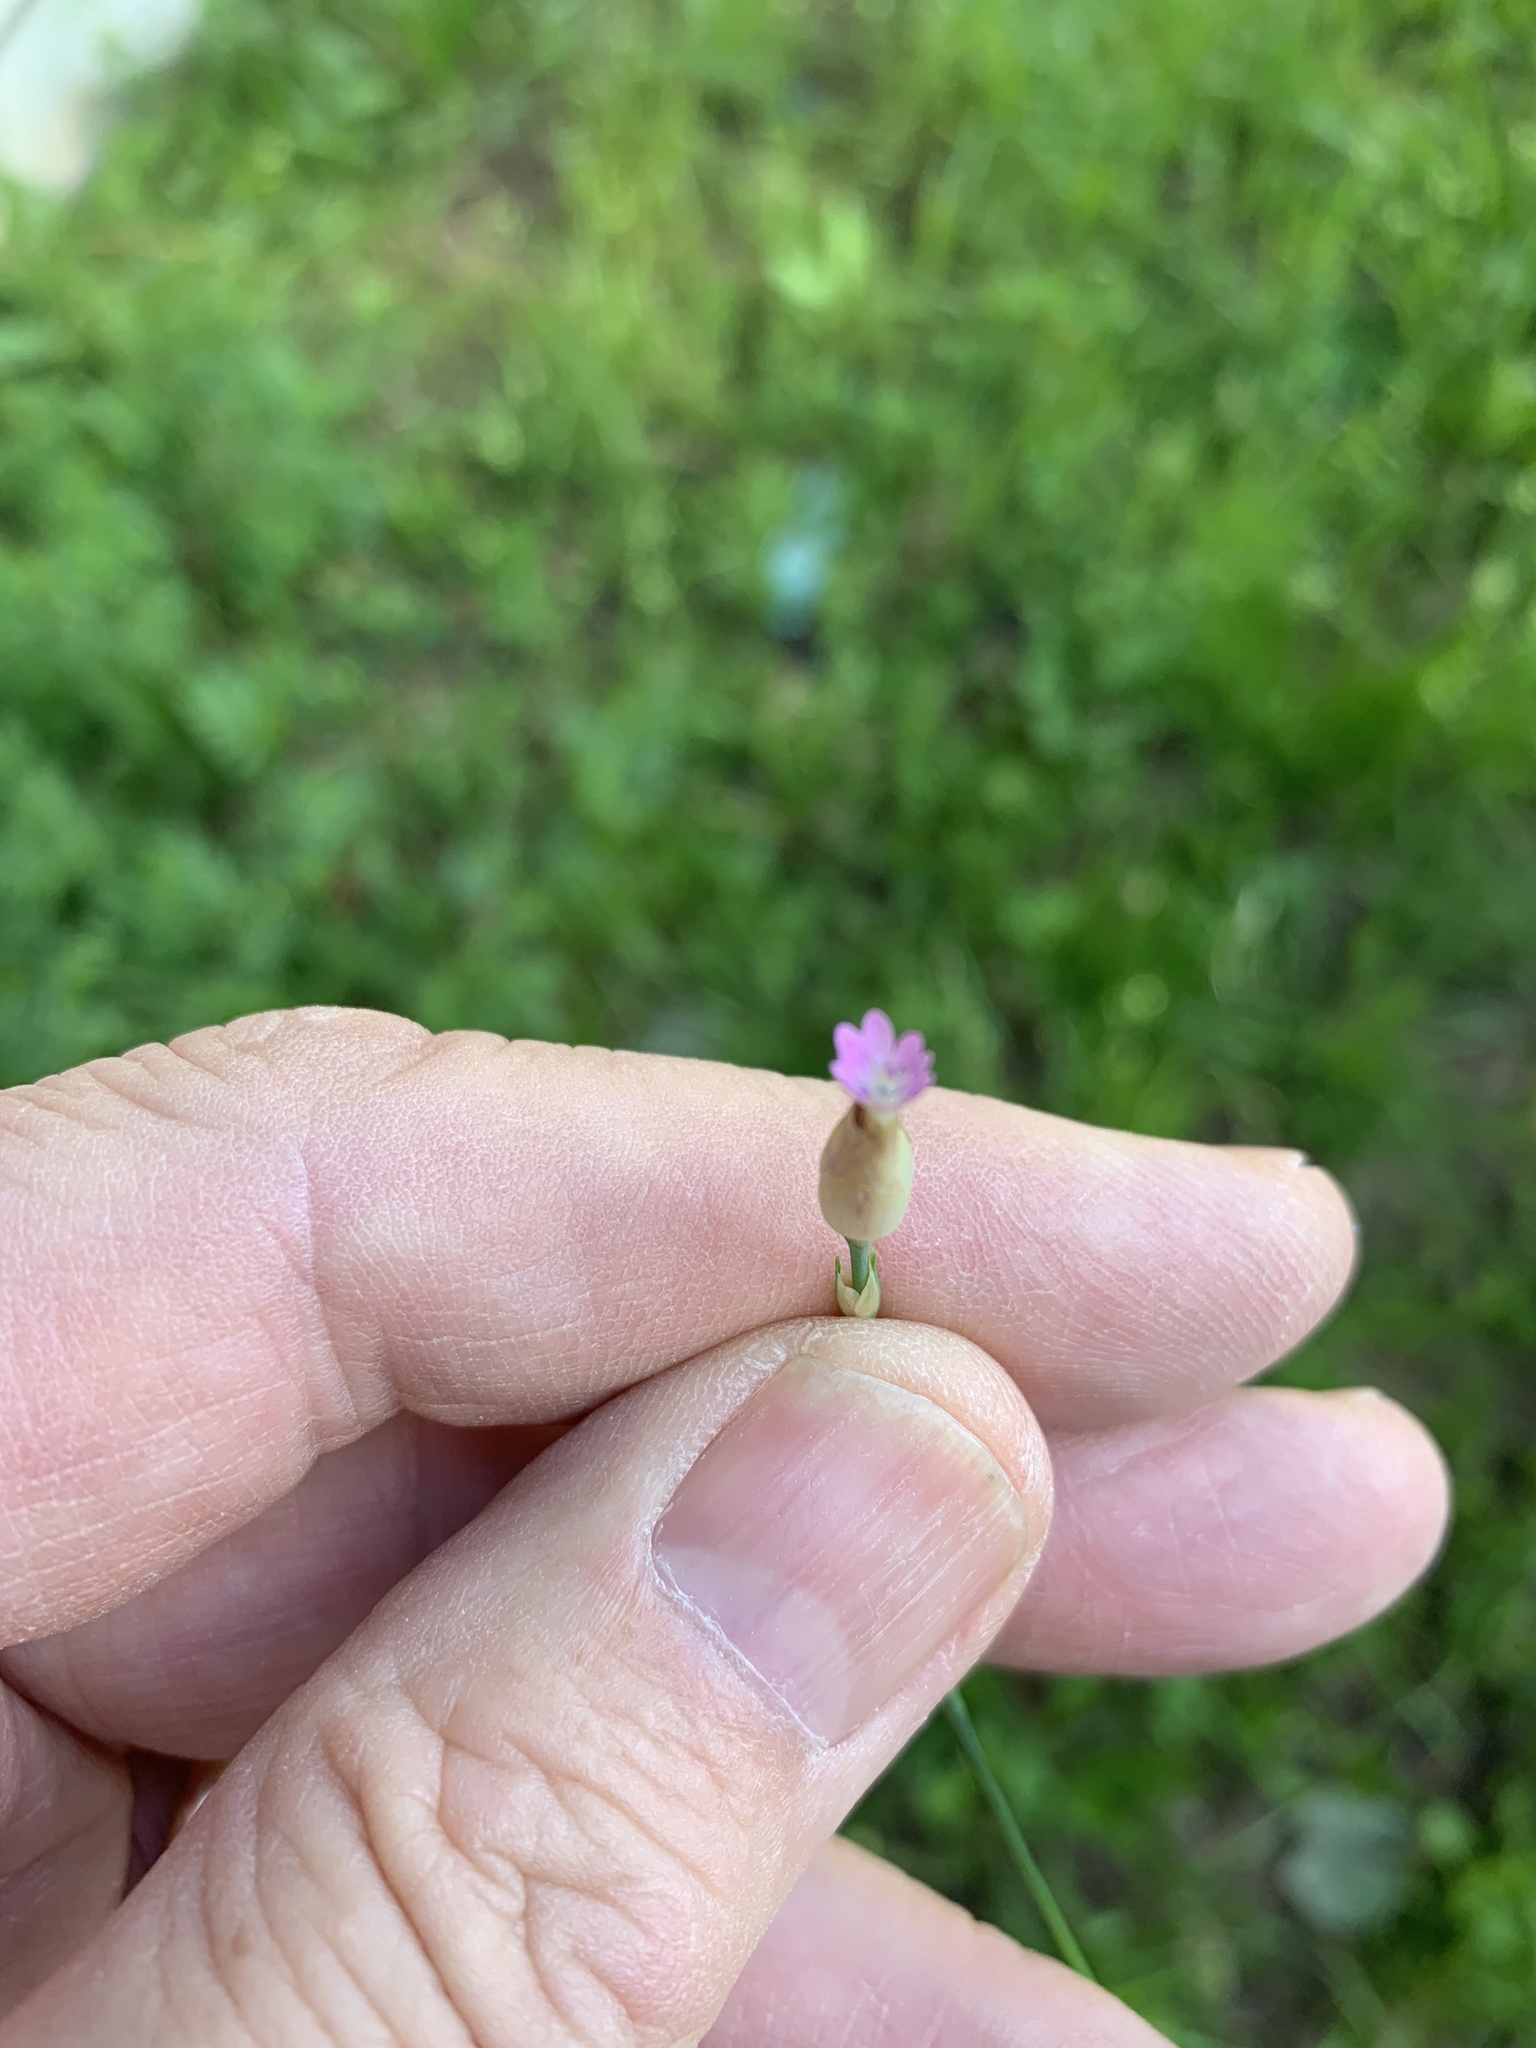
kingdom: Plantae
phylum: Tracheophyta
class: Magnoliopsida
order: Caryophyllales
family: Caryophyllaceae
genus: Petrorhagia
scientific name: Petrorhagia
